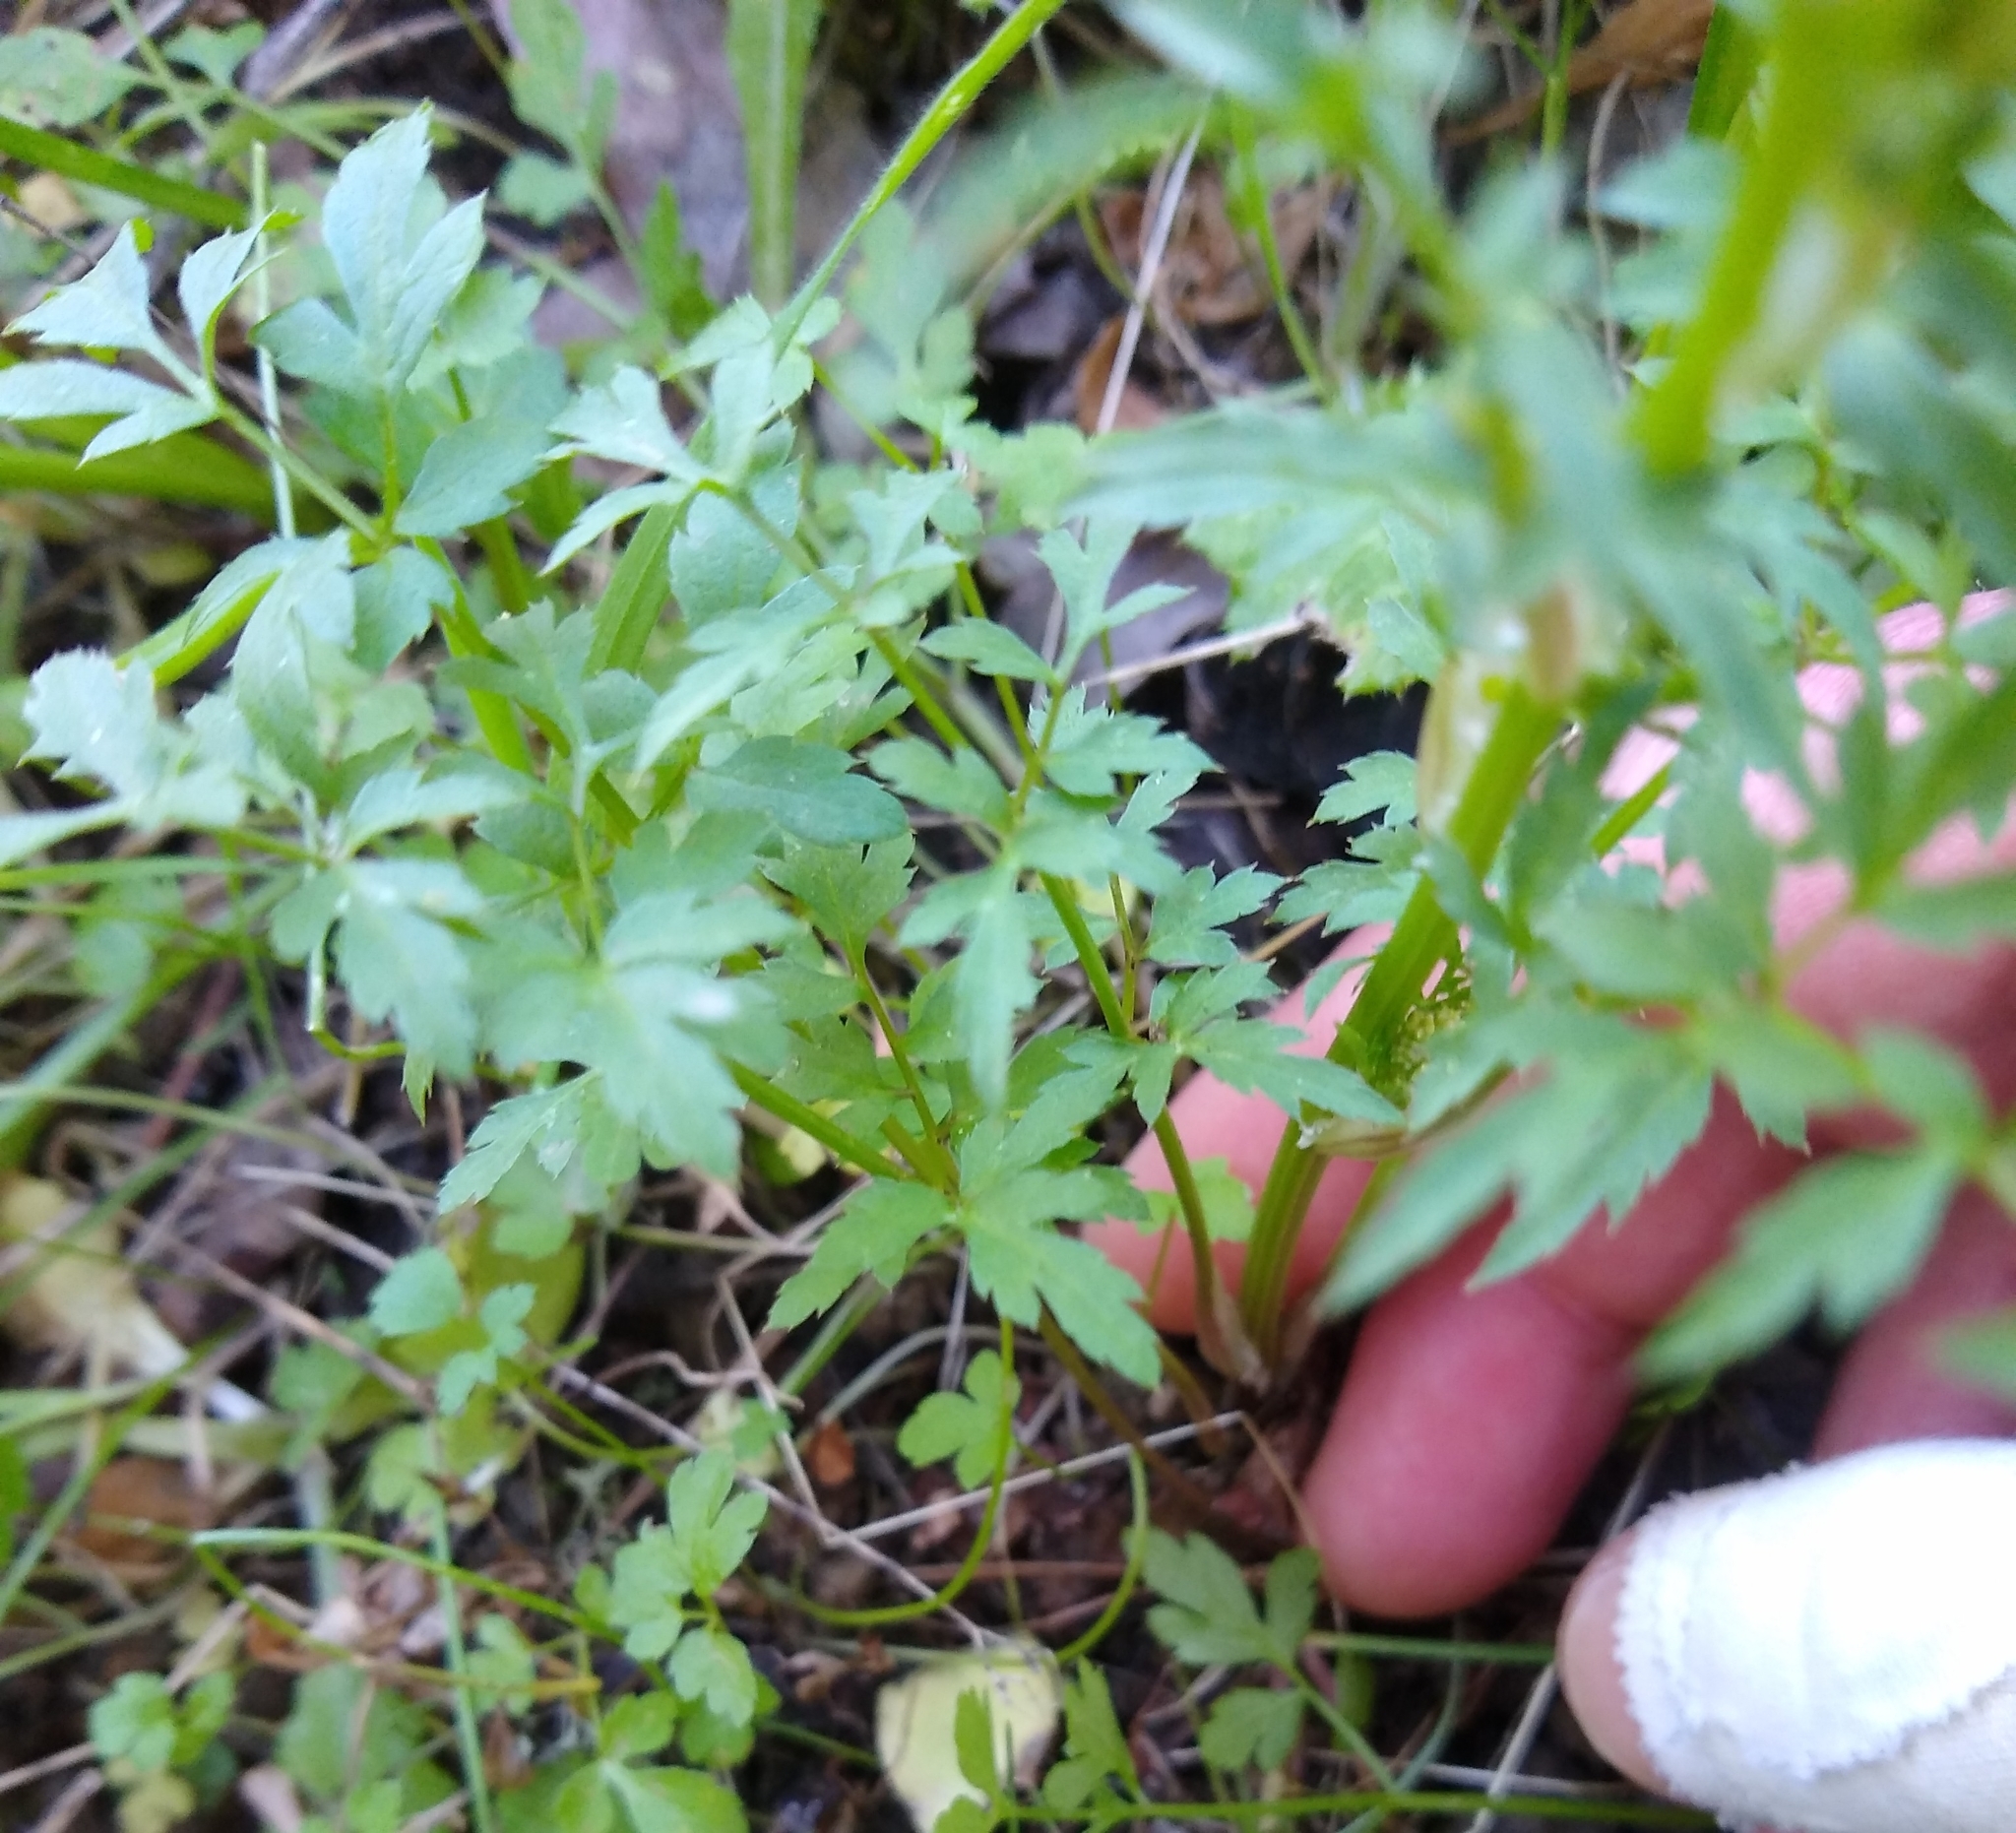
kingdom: Plantae
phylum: Tracheophyta
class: Magnoliopsida
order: Apiales
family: Apiaceae
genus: Sanicula
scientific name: Sanicula bipinnata
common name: Poison sanicle
